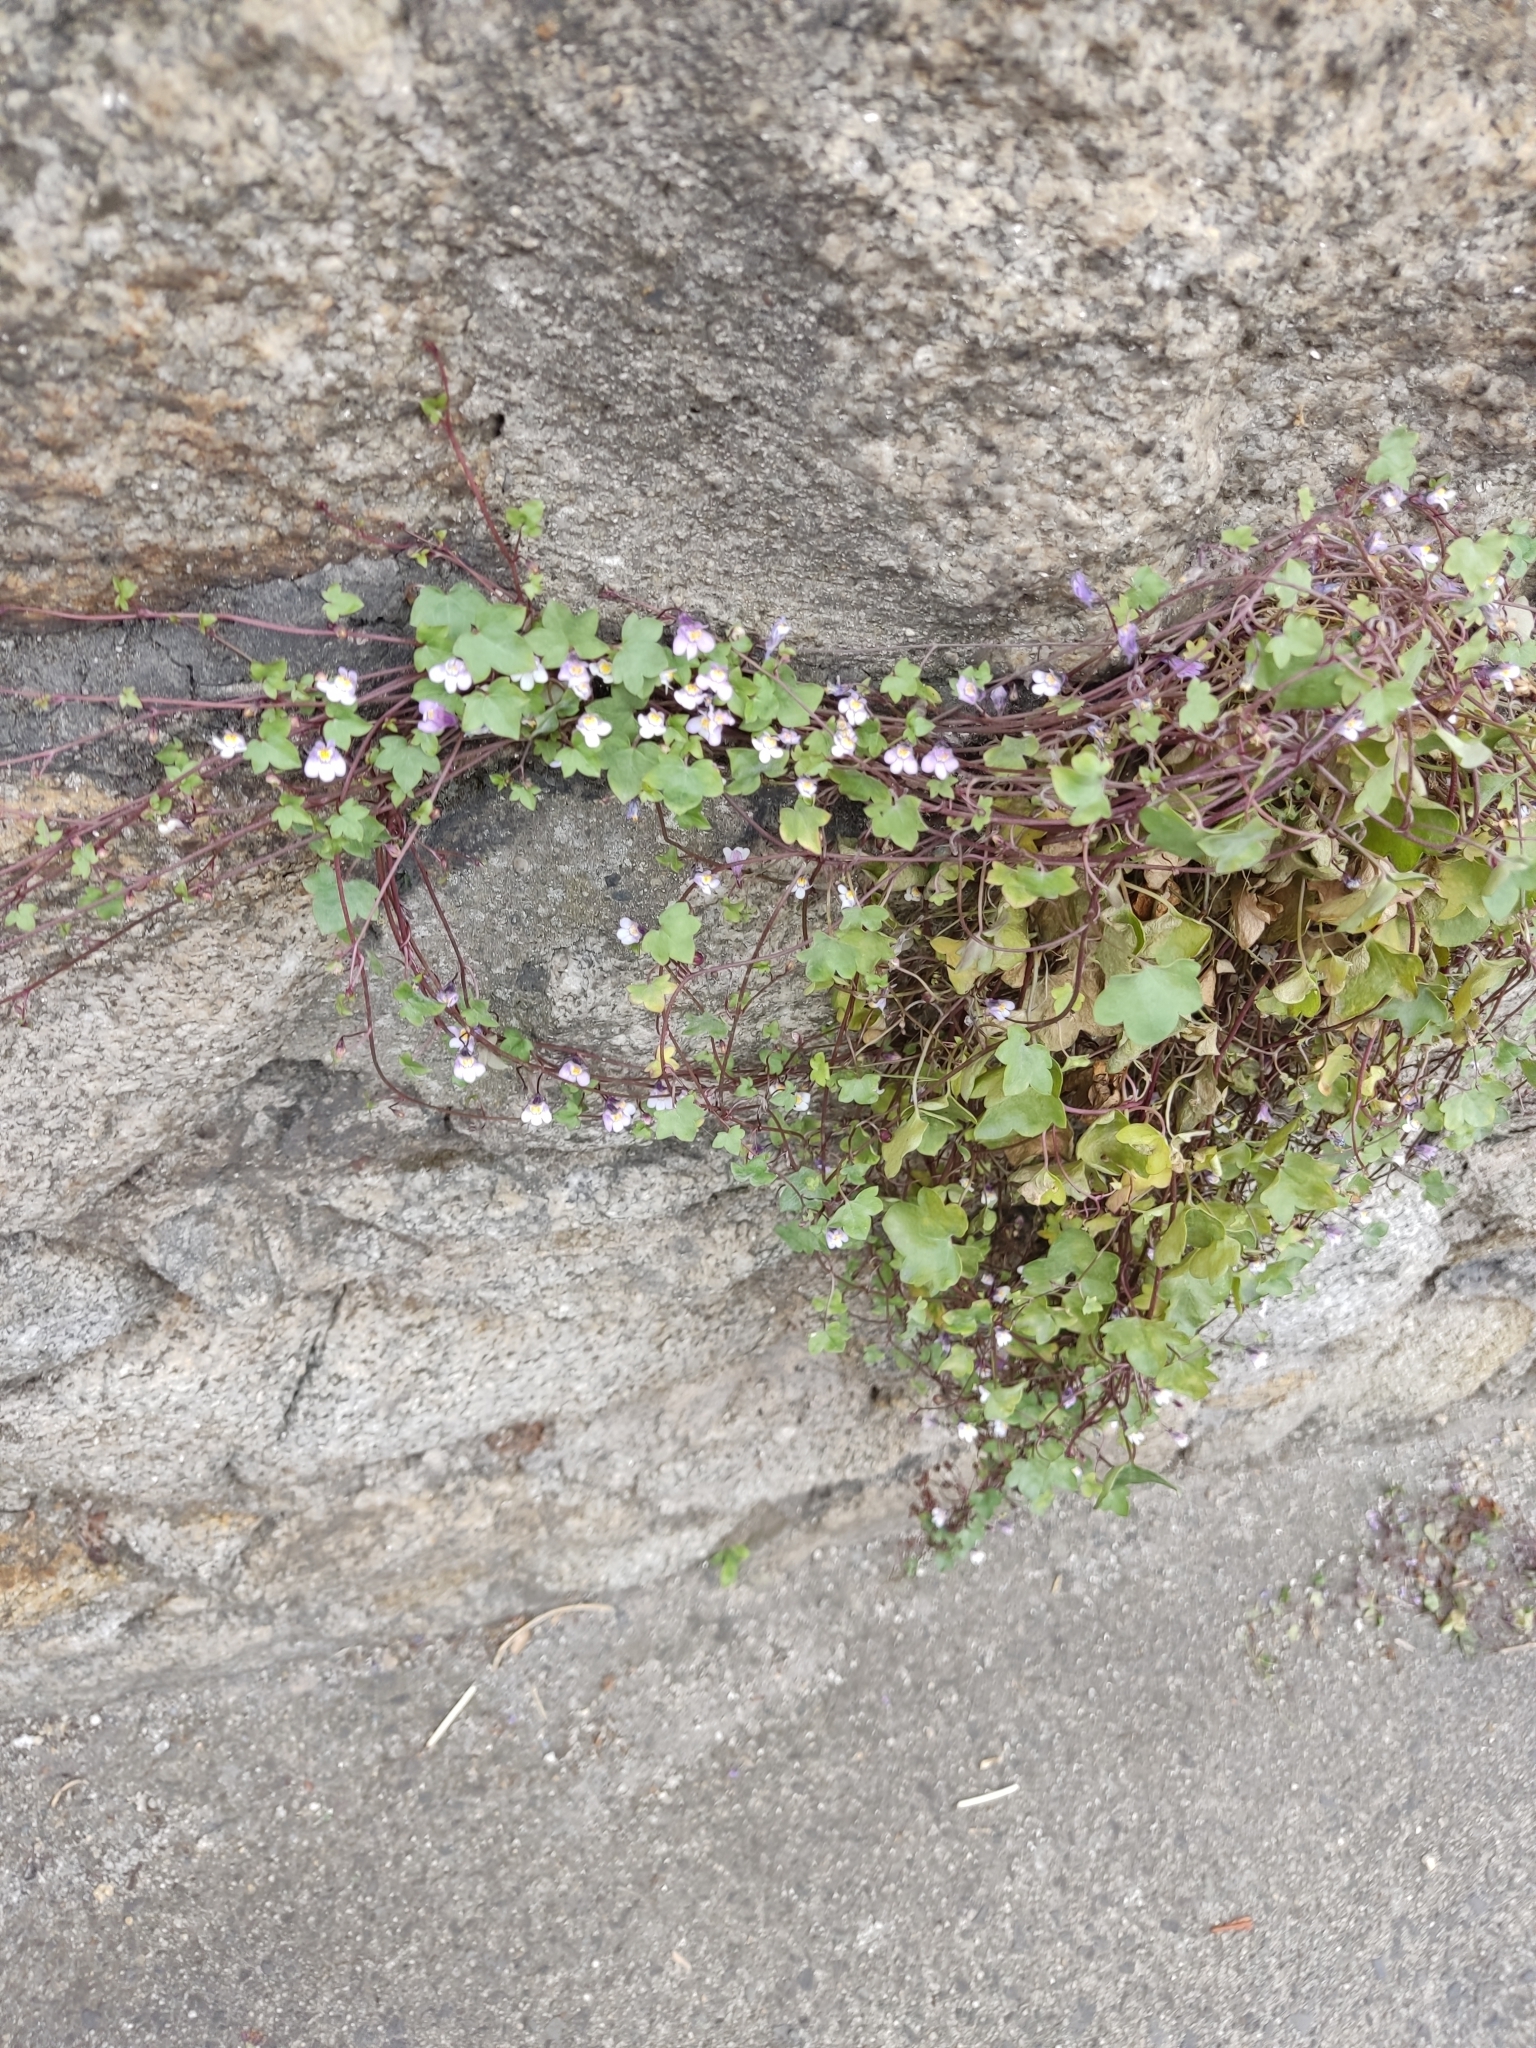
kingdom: Plantae
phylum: Tracheophyta
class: Magnoliopsida
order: Lamiales
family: Plantaginaceae
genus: Cymbalaria
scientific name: Cymbalaria muralis
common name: Ivy-leaved toadflax
